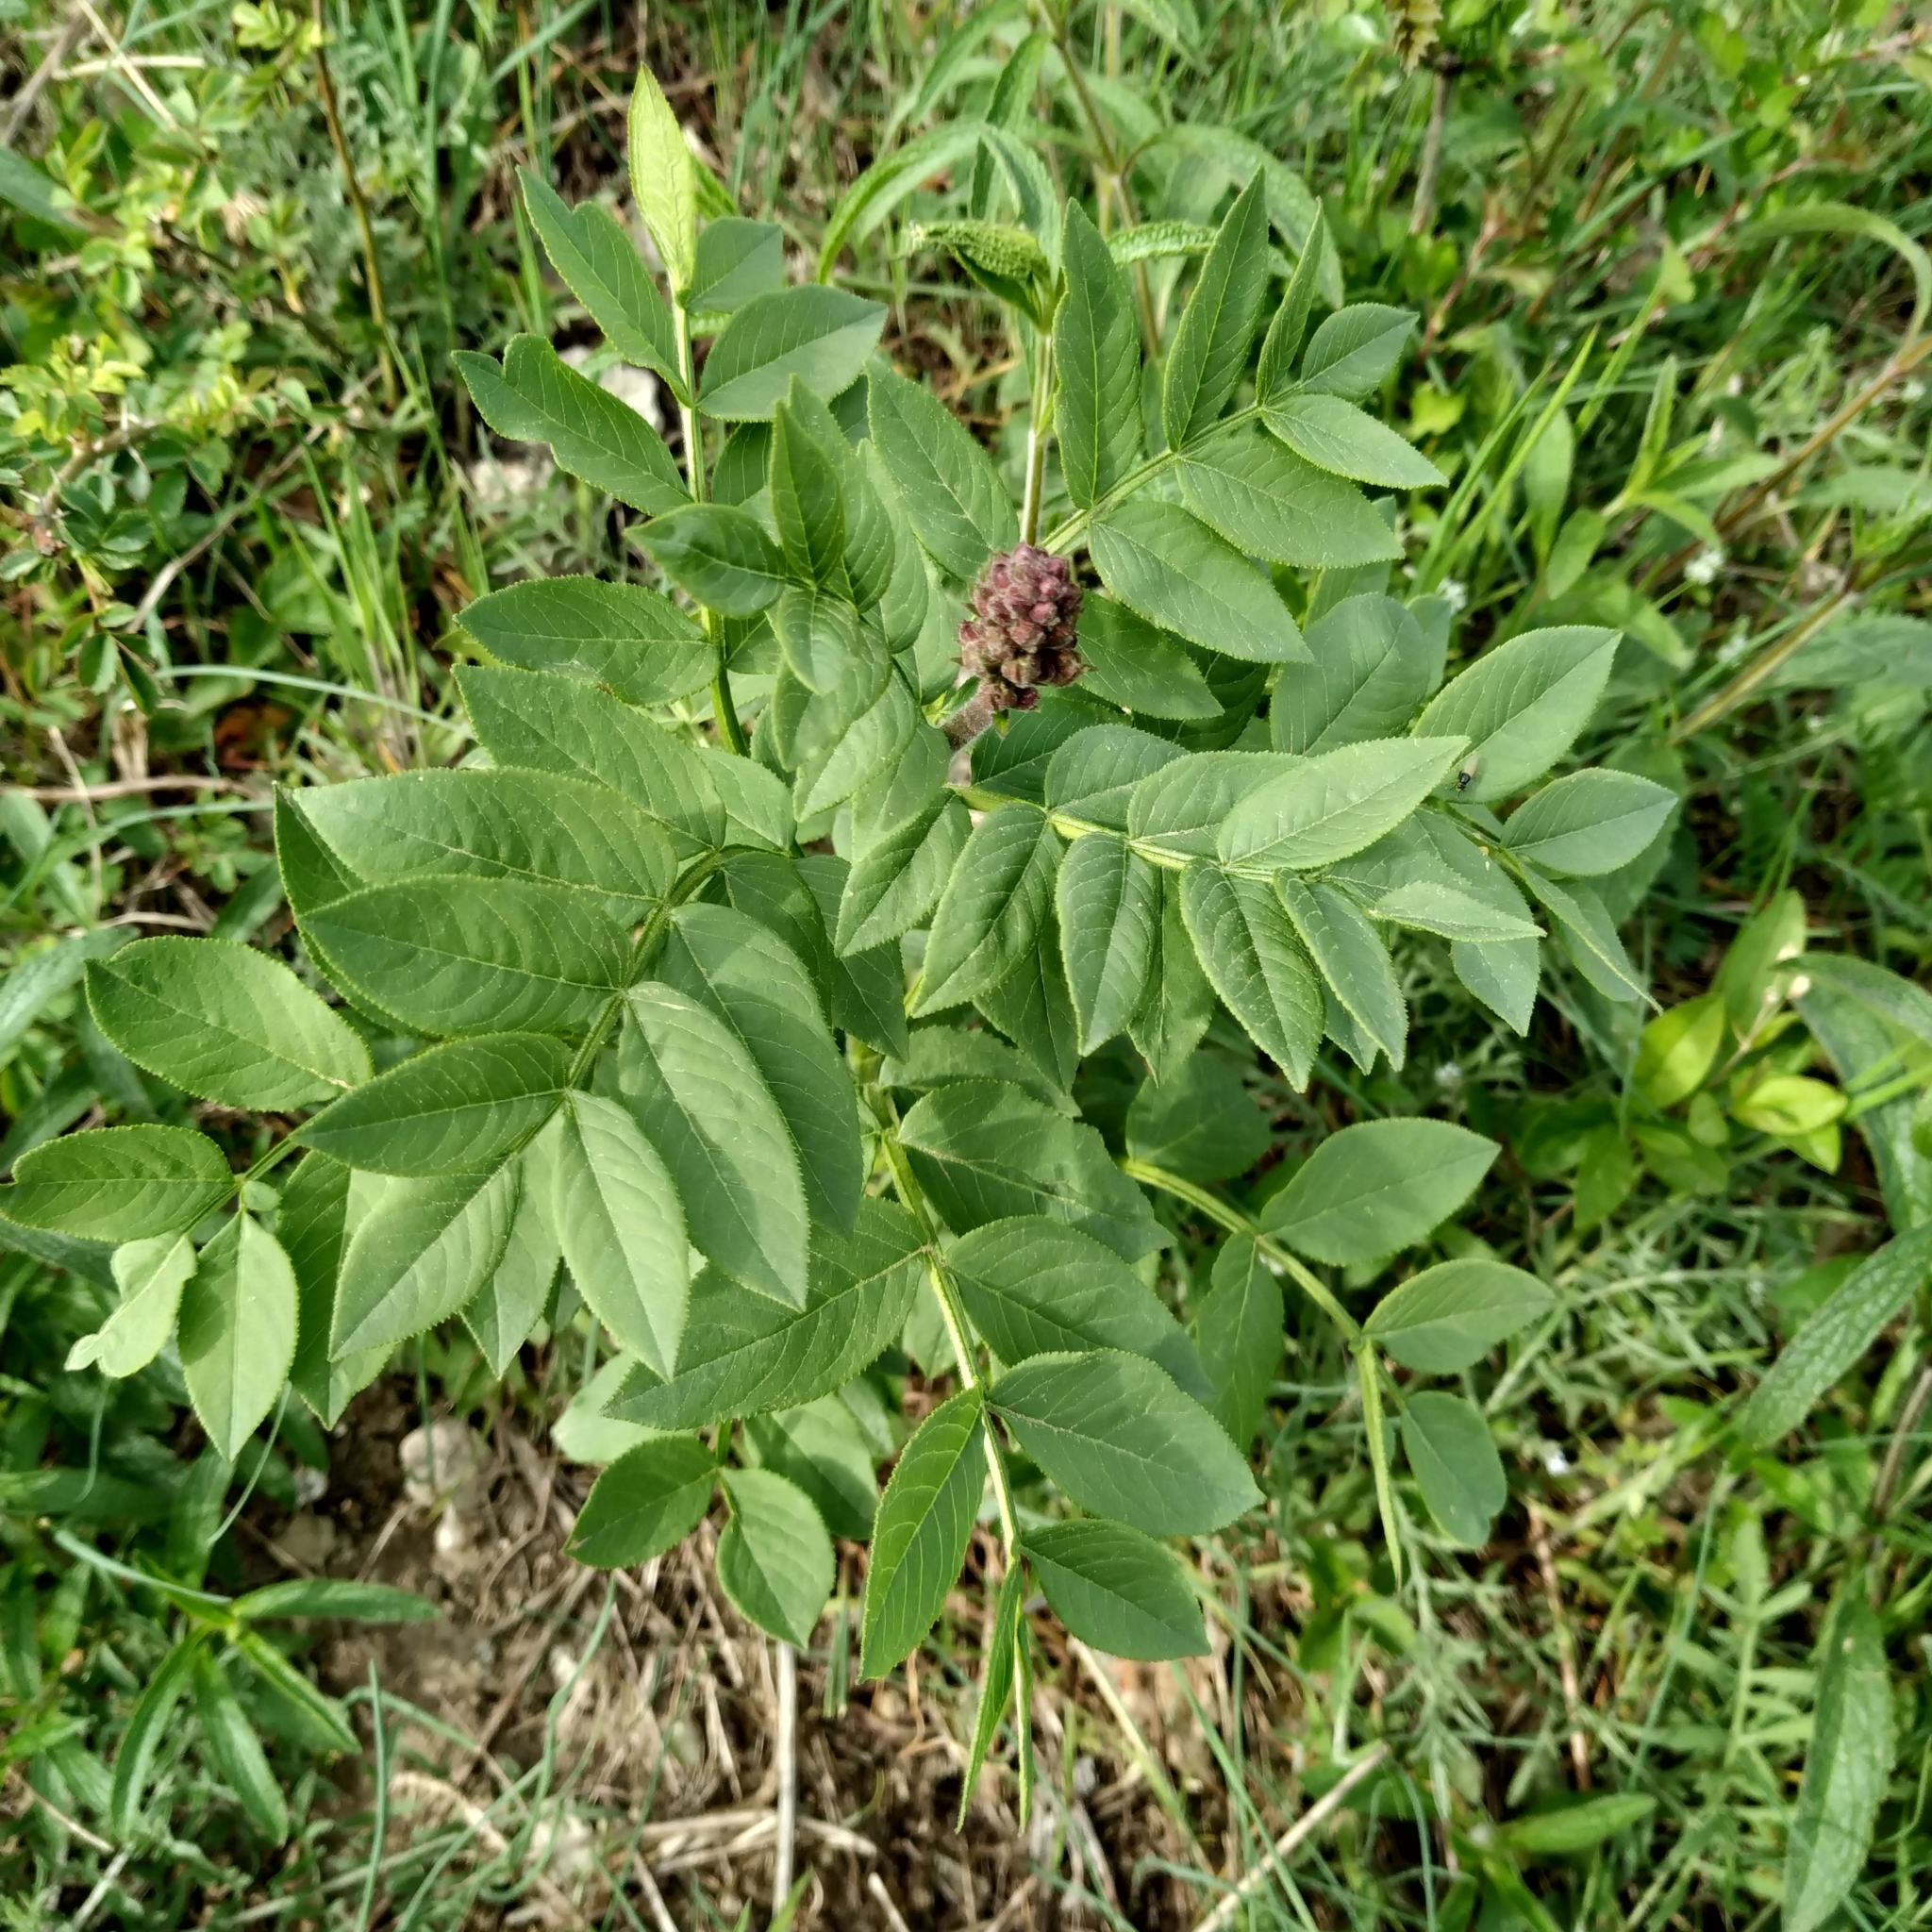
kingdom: Plantae
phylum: Tracheophyta
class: Magnoliopsida
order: Sapindales
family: Rutaceae
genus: Dictamnus
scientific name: Dictamnus albus
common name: Gasplant
